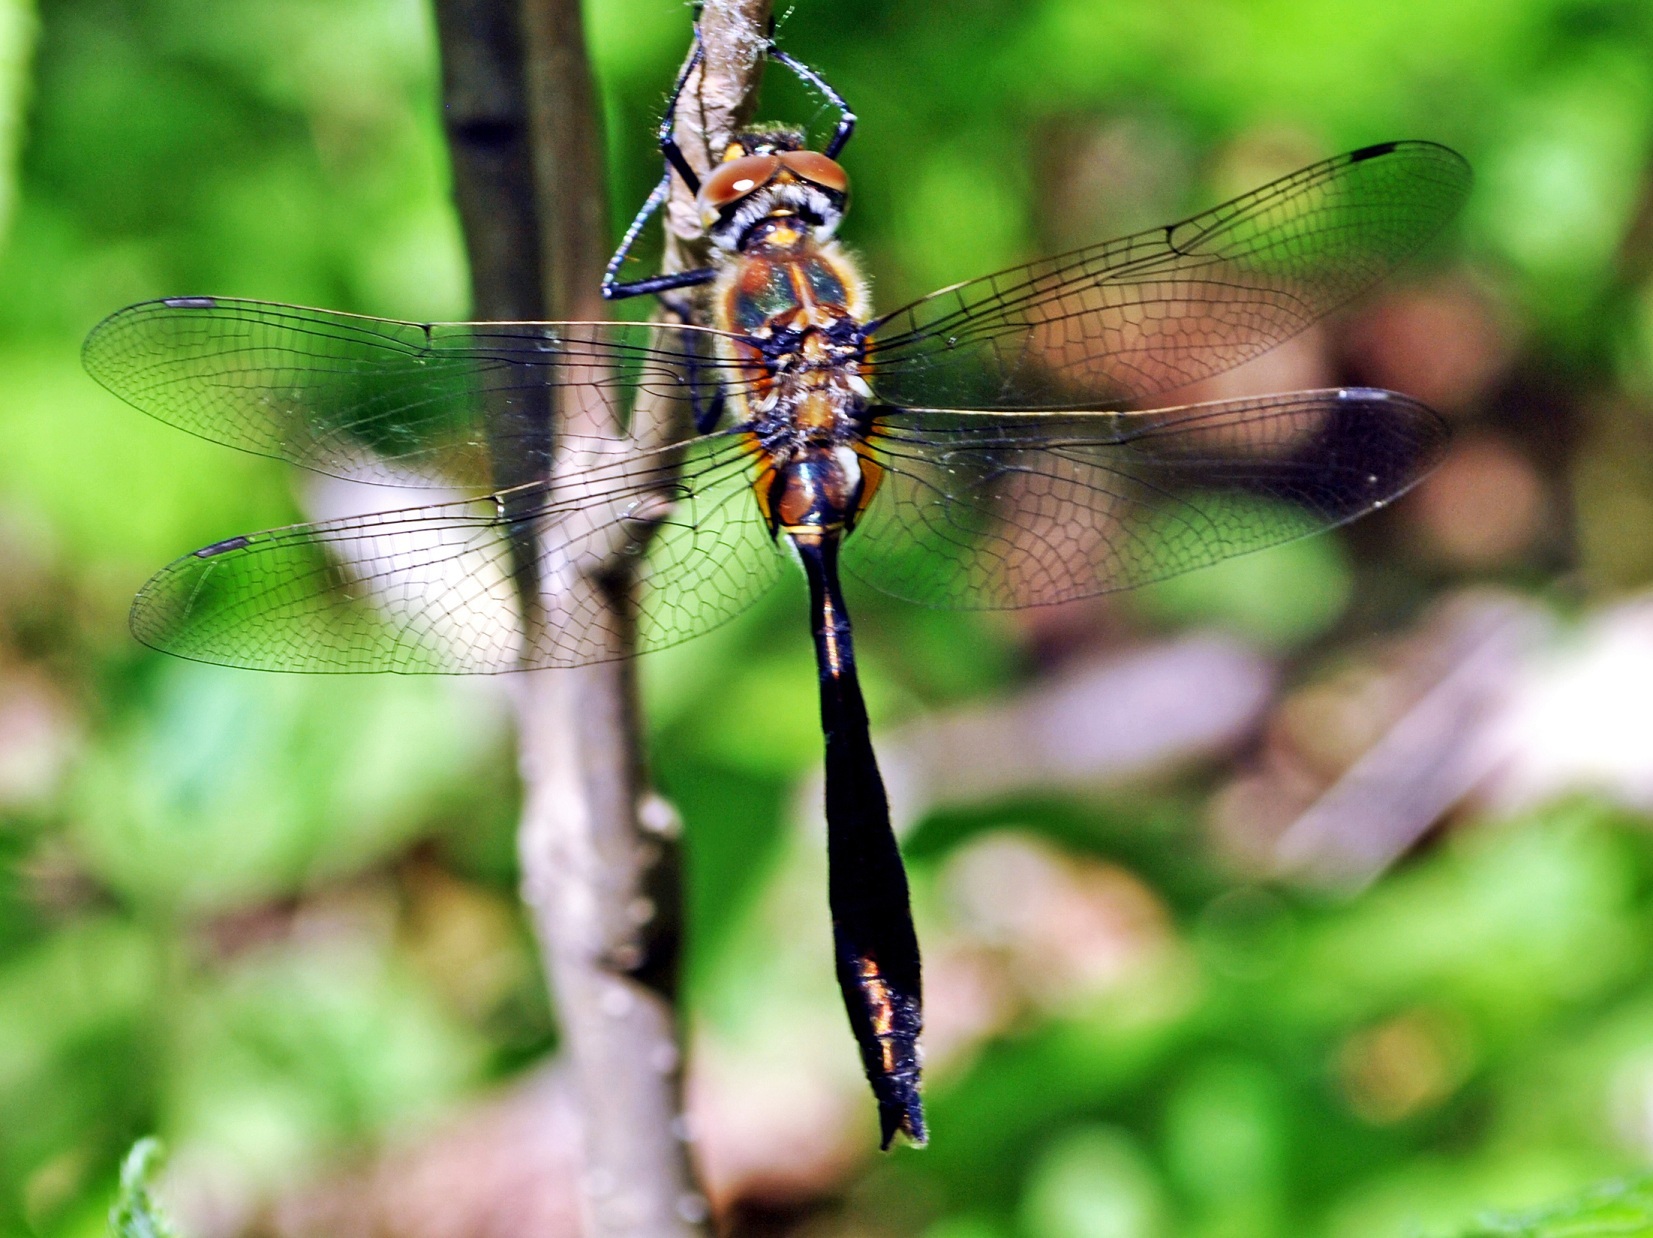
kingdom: Animalia
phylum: Arthropoda
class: Insecta
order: Odonata
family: Corduliidae
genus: Cordulia
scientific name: Cordulia shurtleffii
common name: American emerald
